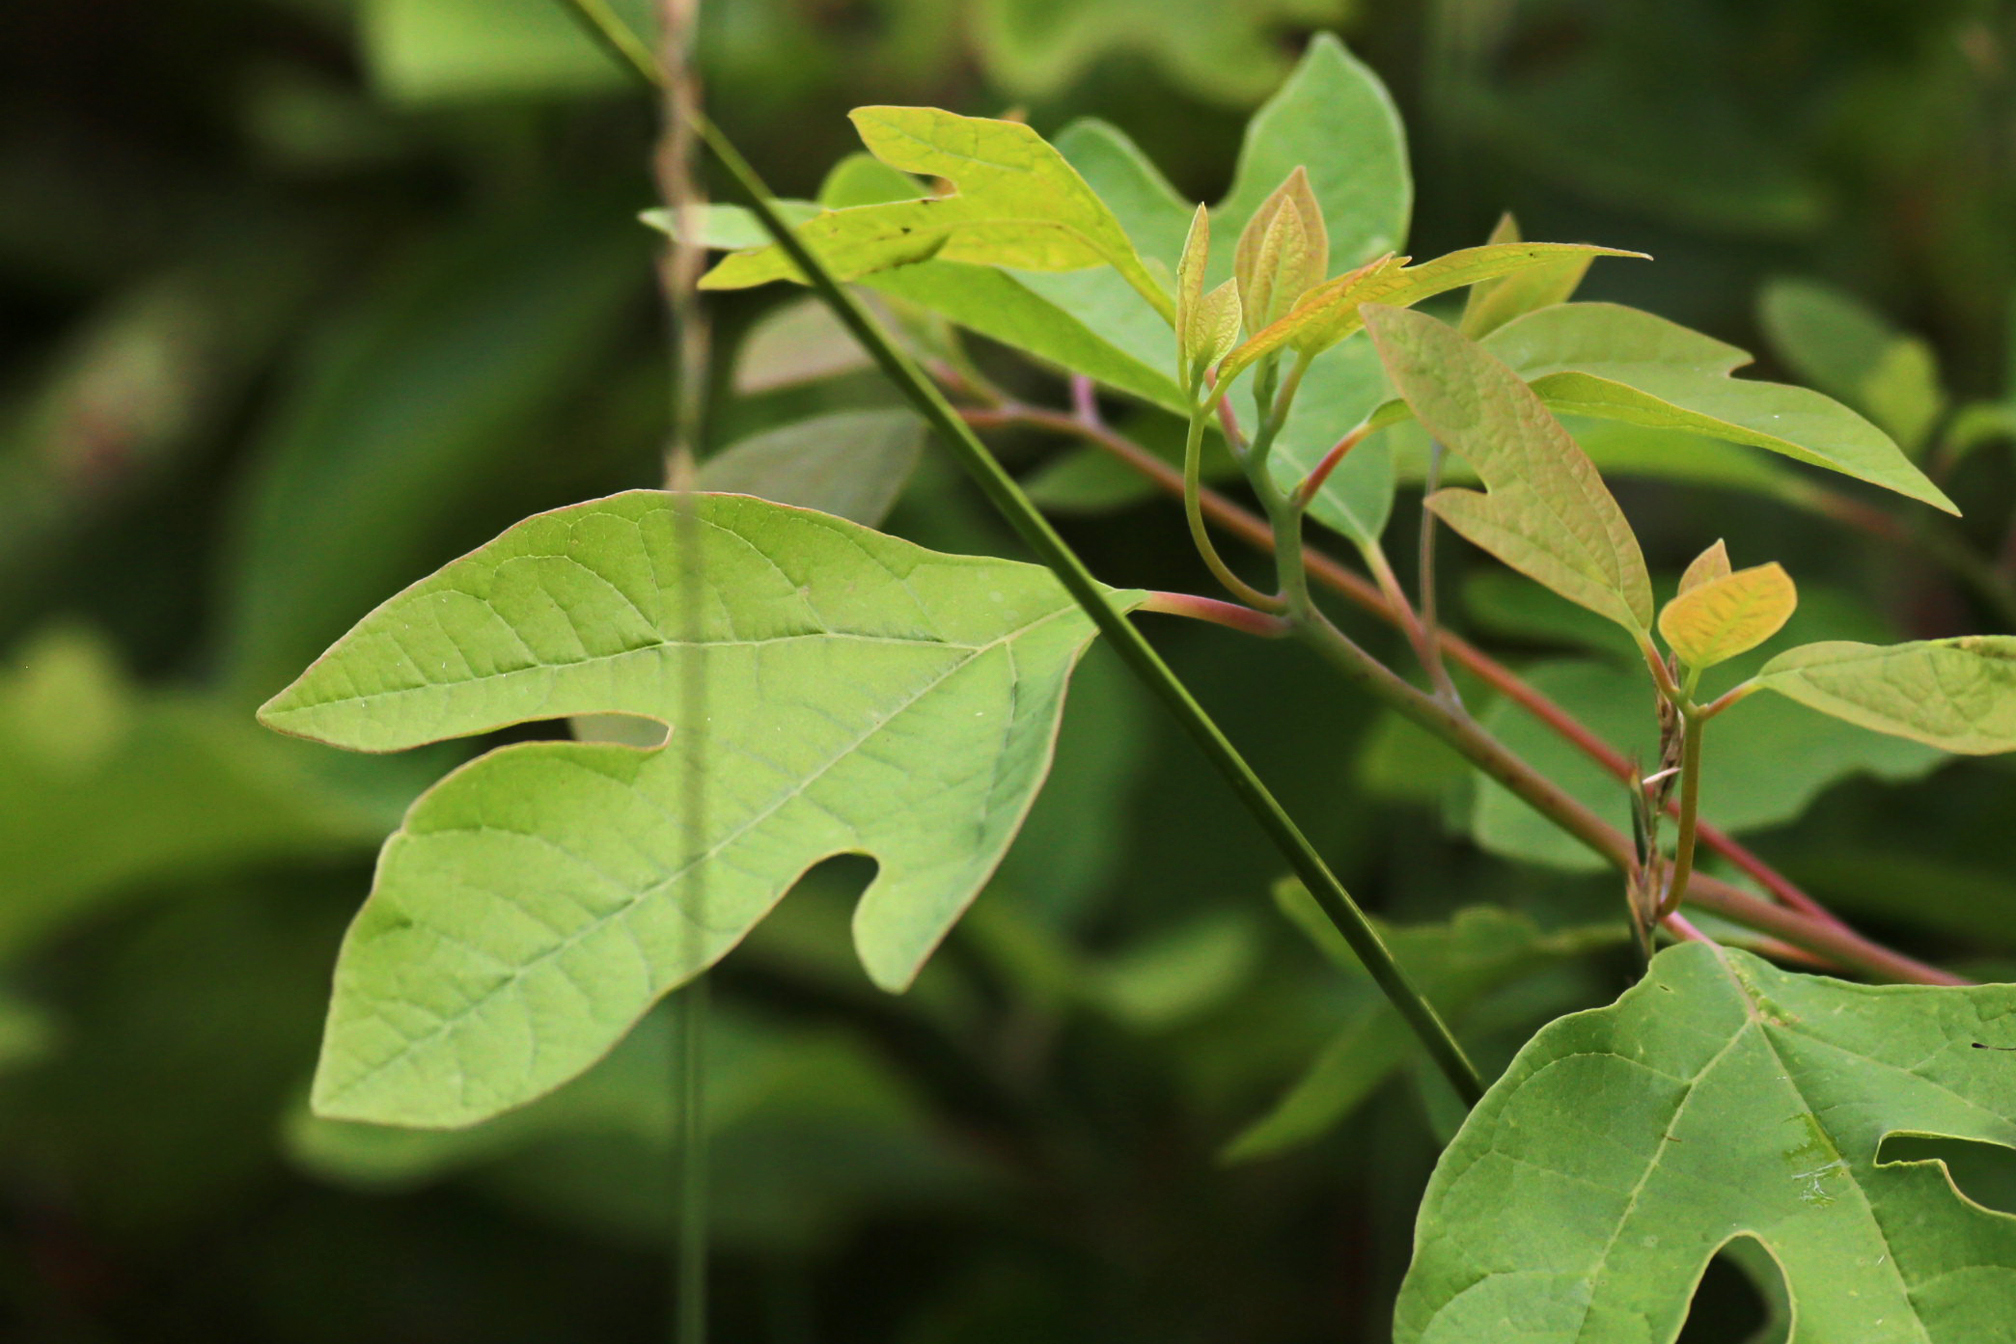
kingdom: Plantae
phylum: Tracheophyta
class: Magnoliopsida
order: Laurales
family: Lauraceae
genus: Sassafras
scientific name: Sassafras albidum
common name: Sassafras
